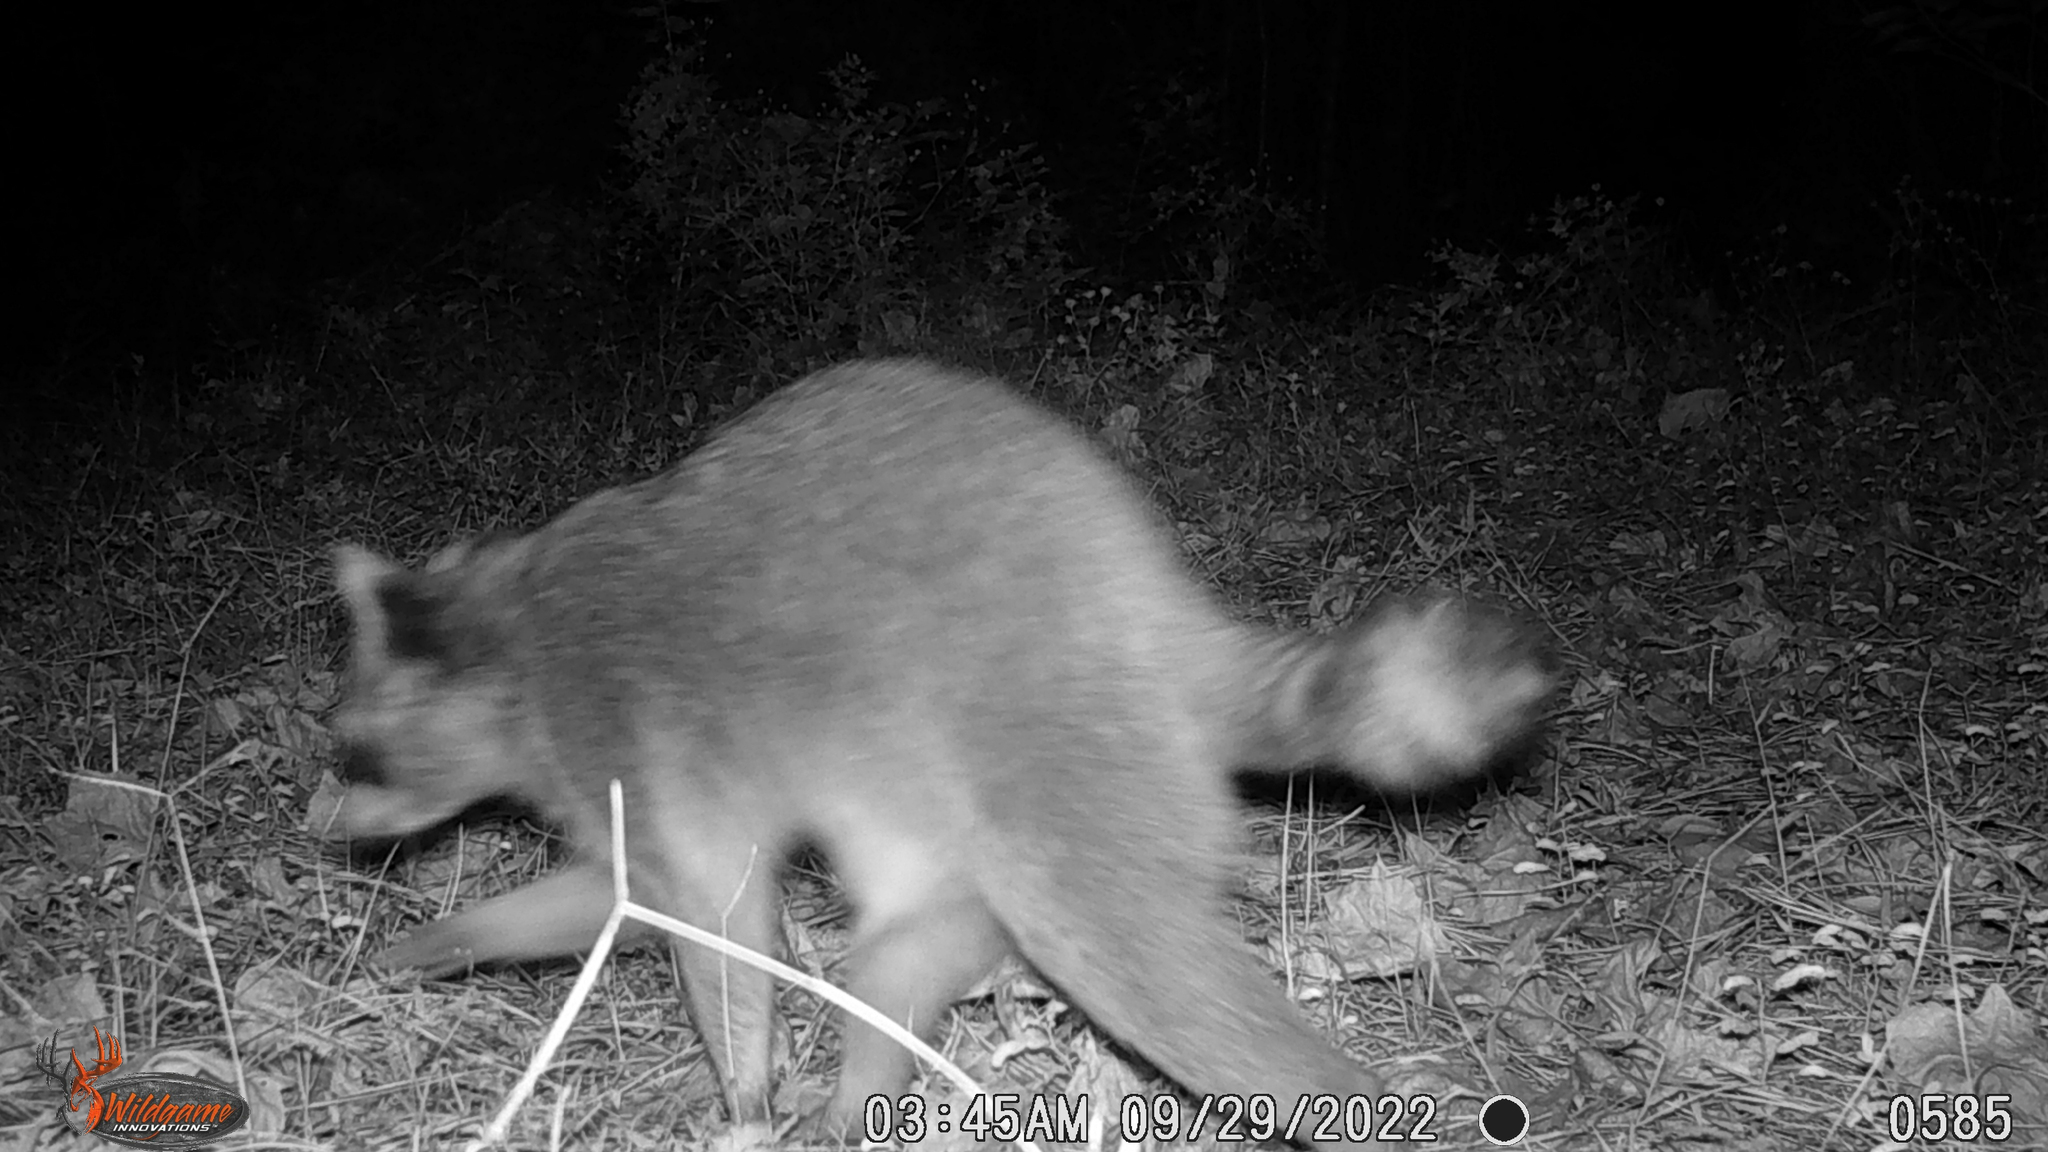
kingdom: Animalia
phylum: Chordata
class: Mammalia
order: Carnivora
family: Procyonidae
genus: Procyon
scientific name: Procyon lotor
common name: Raccoon
